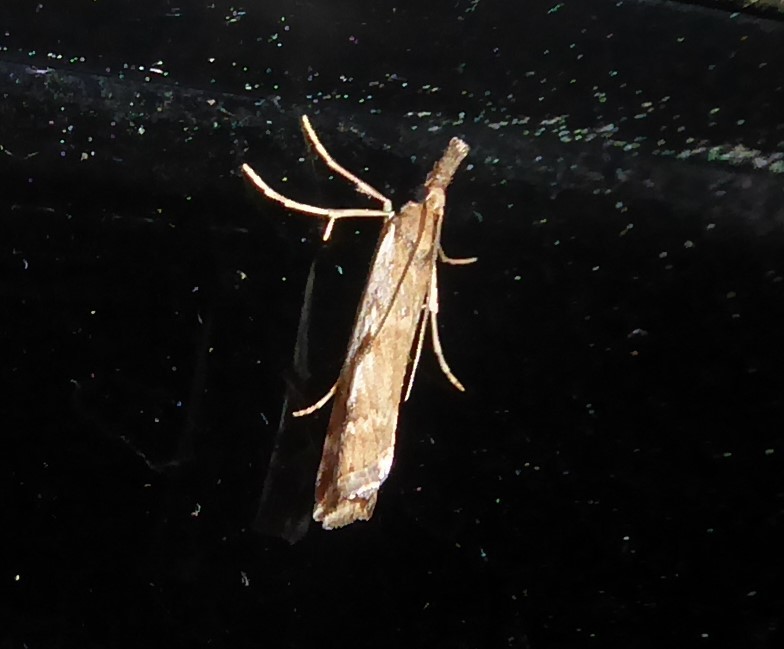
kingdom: Animalia
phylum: Arthropoda
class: Insecta
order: Lepidoptera
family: Crambidae
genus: Orocrambus
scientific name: Orocrambus vulgaris
